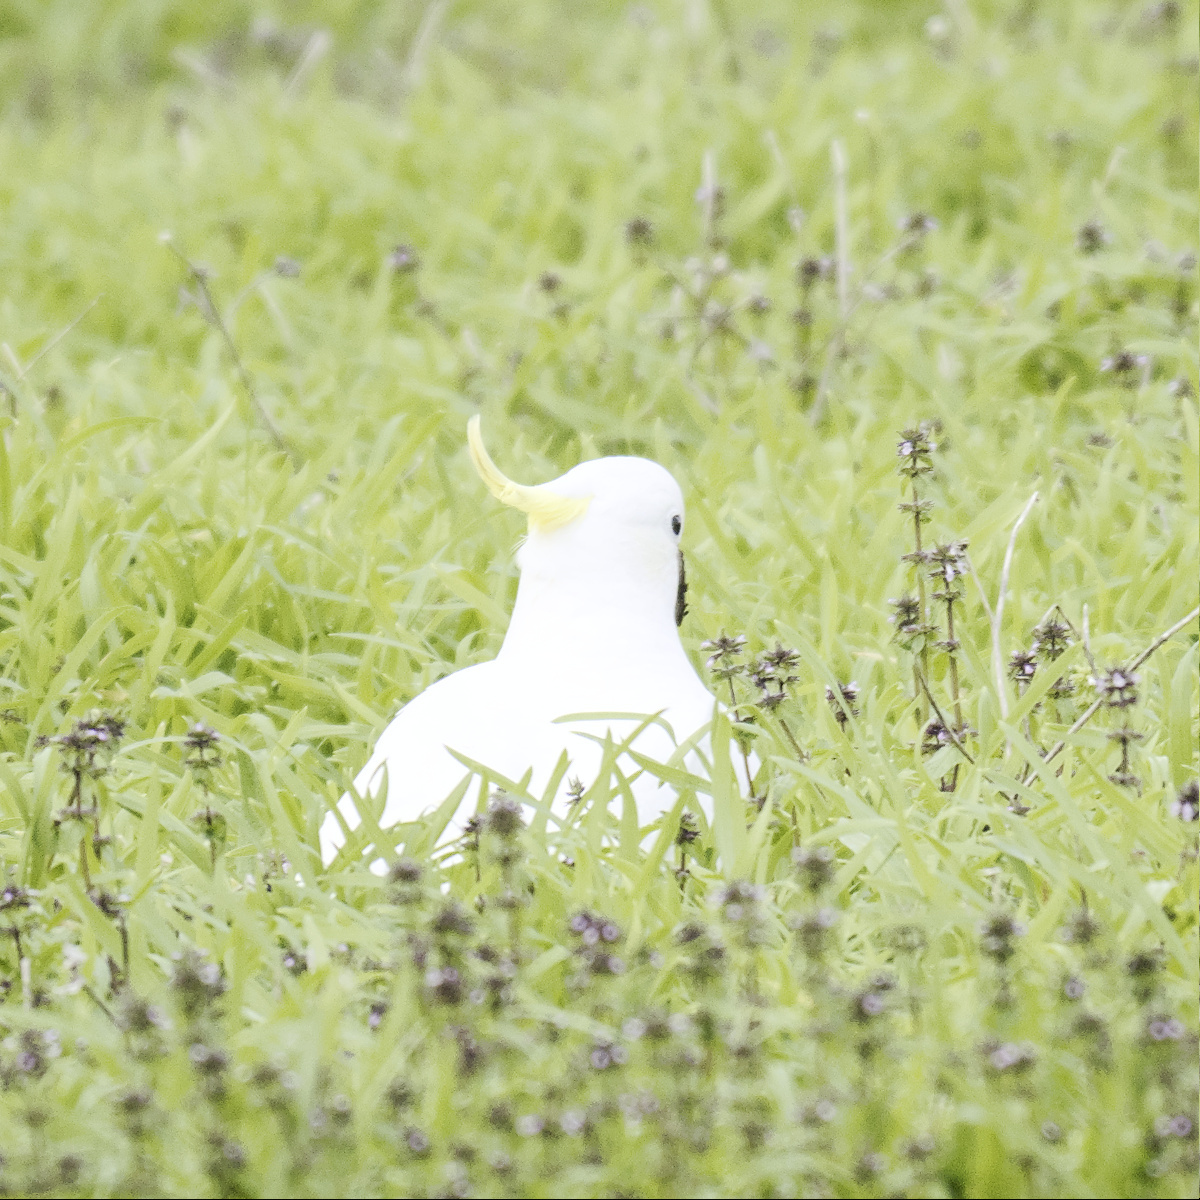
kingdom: Animalia
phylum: Chordata
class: Aves
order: Psittaciformes
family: Psittacidae
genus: Cacatua
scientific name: Cacatua galerita
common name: Sulphur-crested cockatoo
